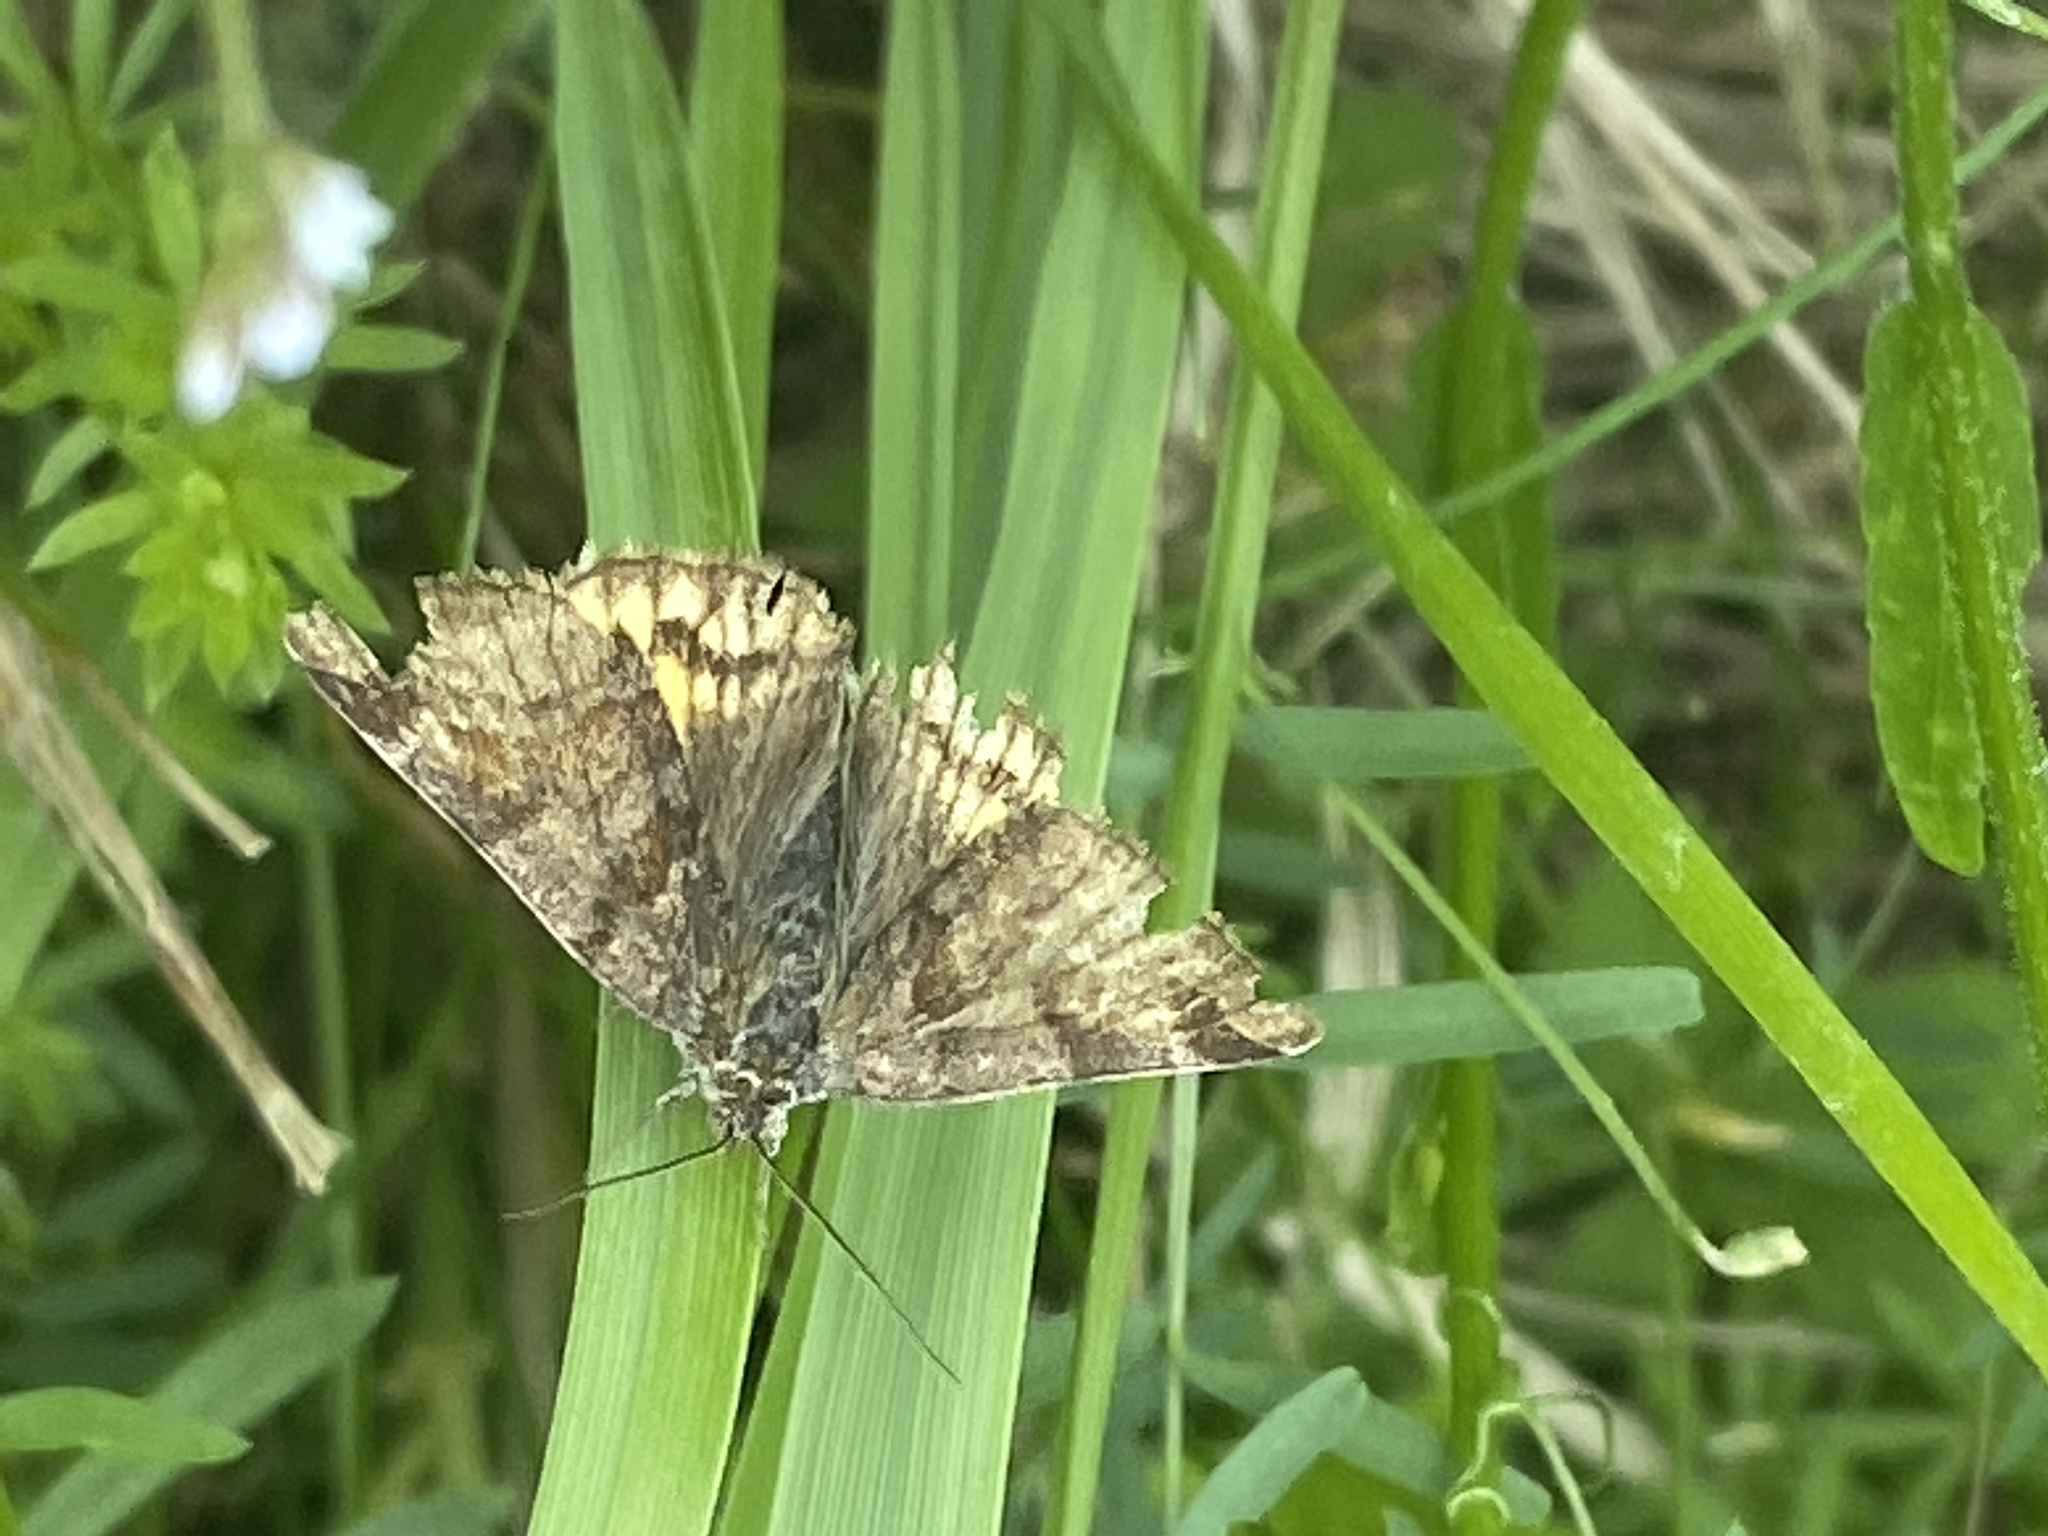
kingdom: Animalia
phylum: Arthropoda
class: Insecta
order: Lepidoptera
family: Erebidae
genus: Euclidia
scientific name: Euclidia glyphica
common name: Burnet companion
